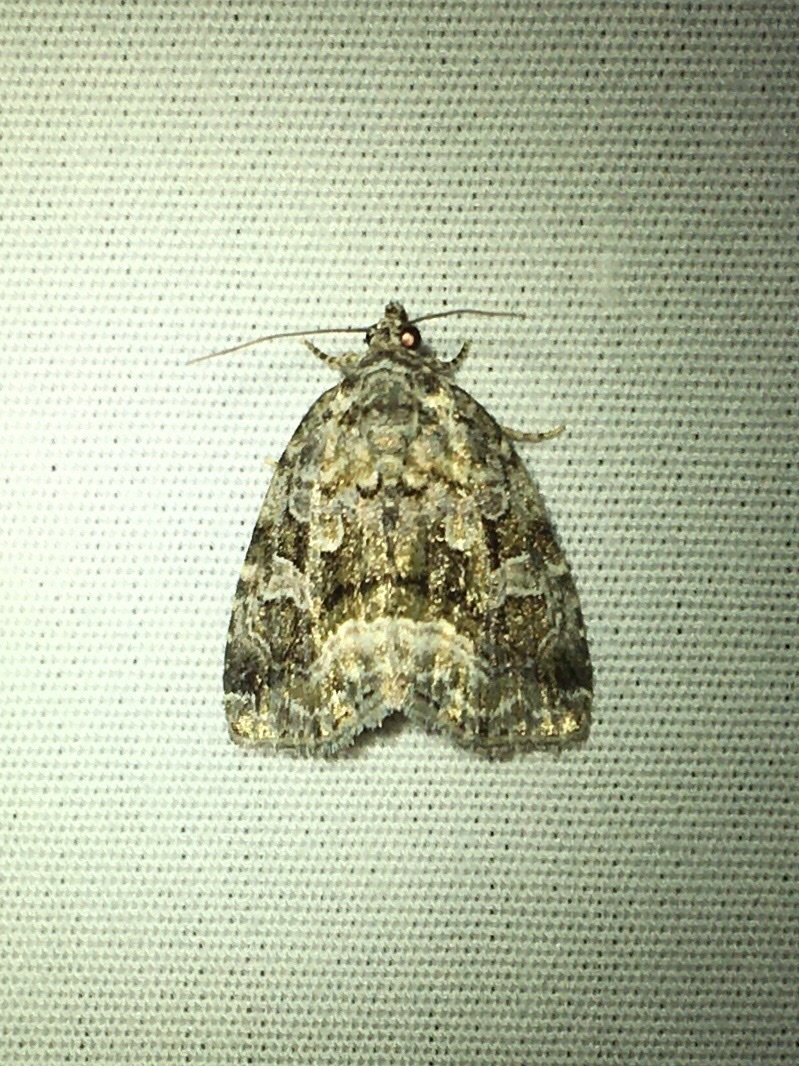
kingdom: Animalia
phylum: Arthropoda
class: Insecta
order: Lepidoptera
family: Noctuidae
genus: Protodeltote
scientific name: Protodeltote muscosula
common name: Large mossy glyph
